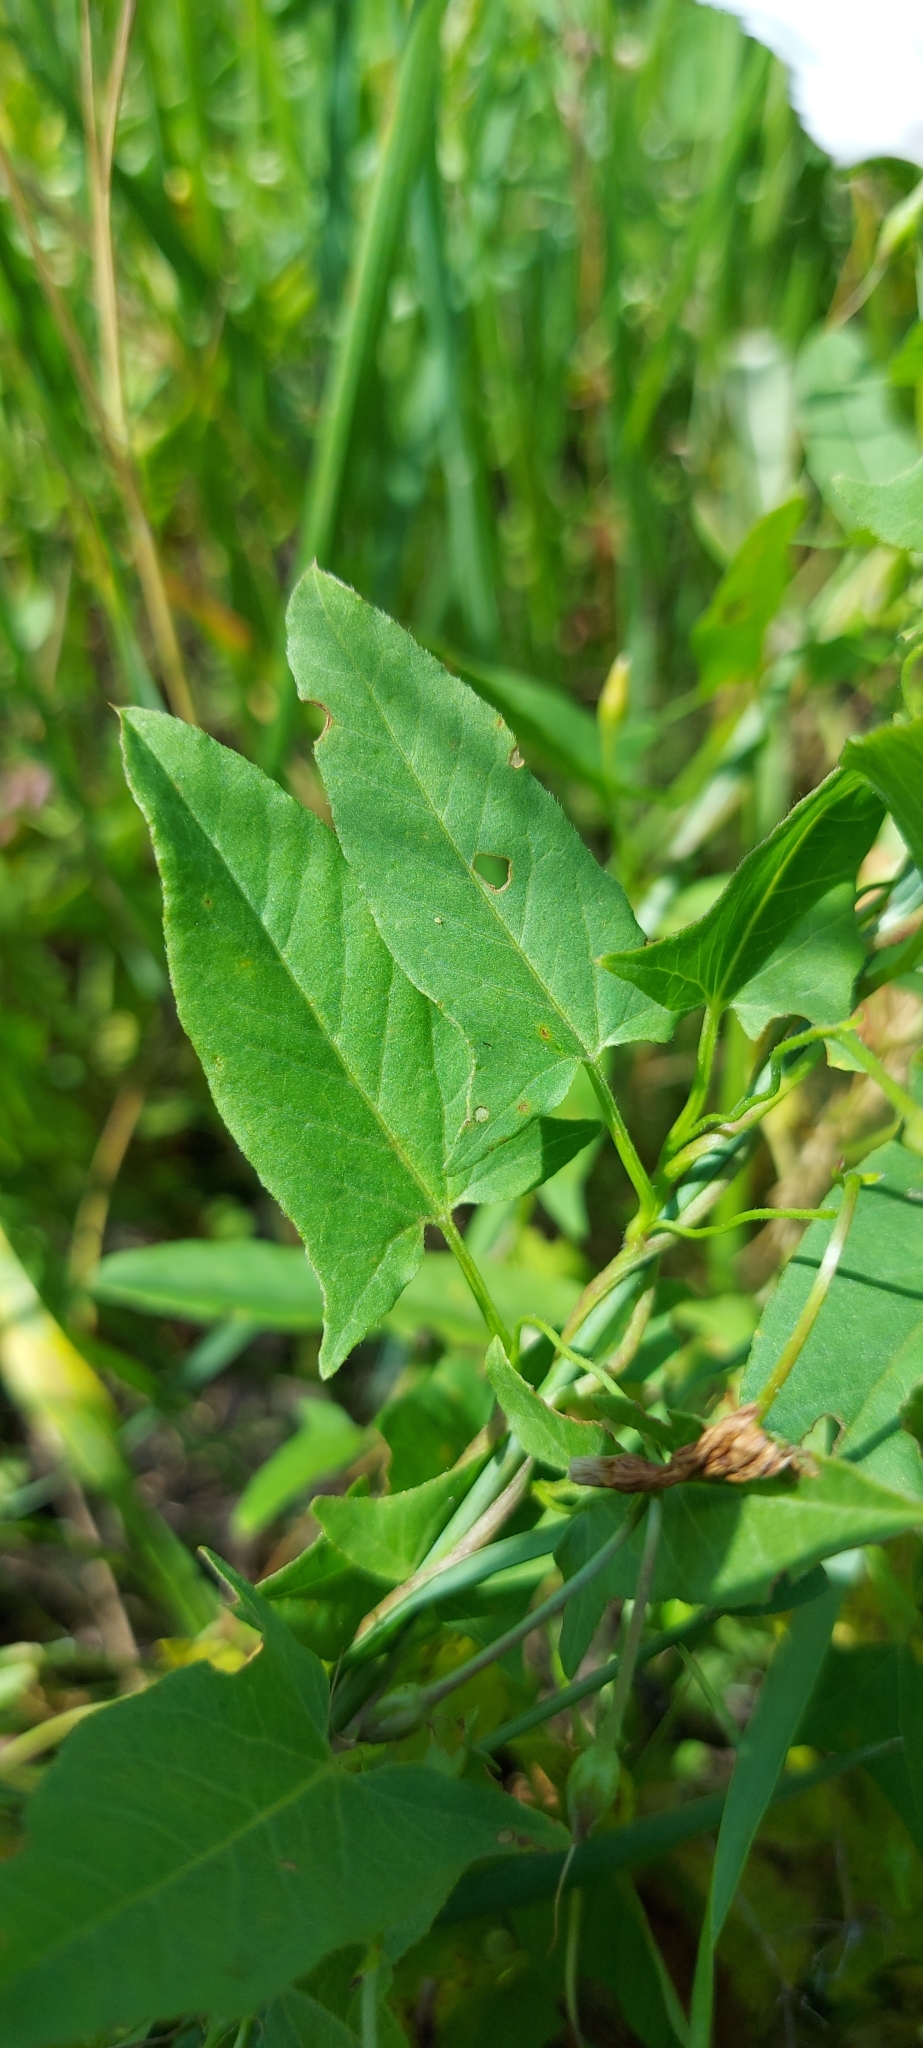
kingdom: Plantae
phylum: Tracheophyta
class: Magnoliopsida
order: Solanales
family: Convolvulaceae
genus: Convolvulus
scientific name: Convolvulus arvensis
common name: Field bindweed
